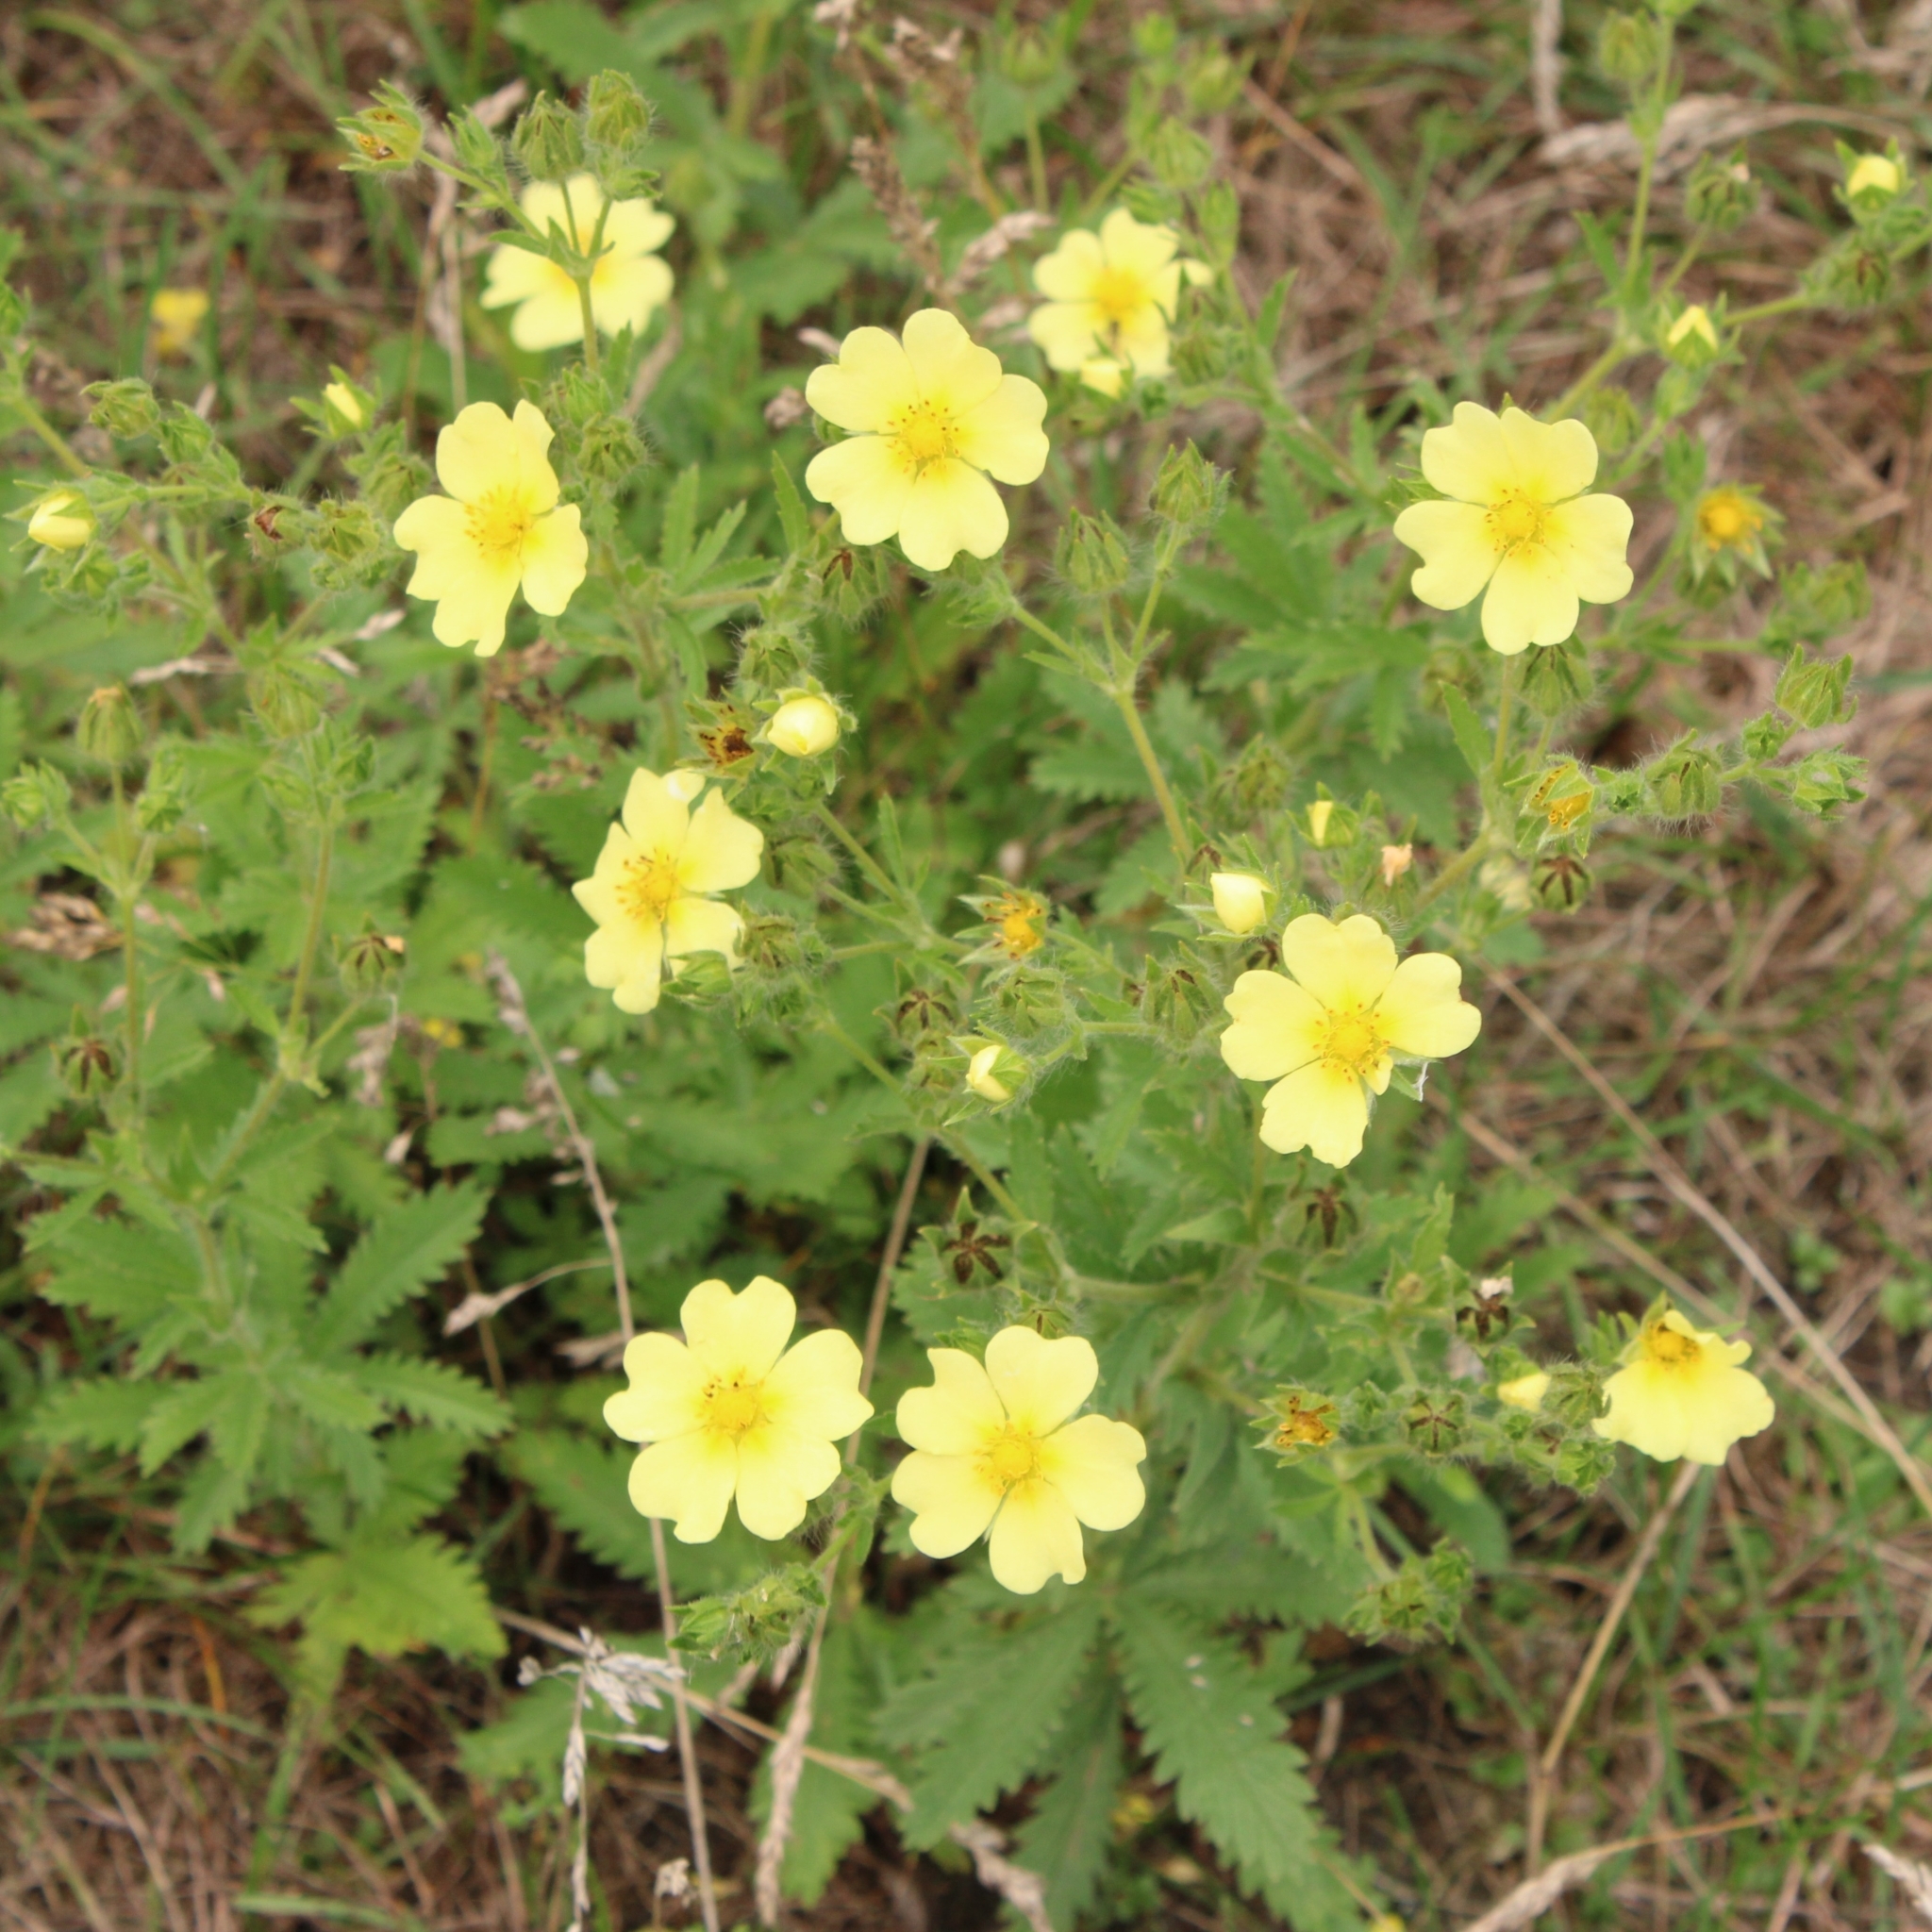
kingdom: Plantae
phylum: Tracheophyta
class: Magnoliopsida
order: Rosales
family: Rosaceae
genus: Potentilla
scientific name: Potentilla recta
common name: Sulphur cinquefoil
